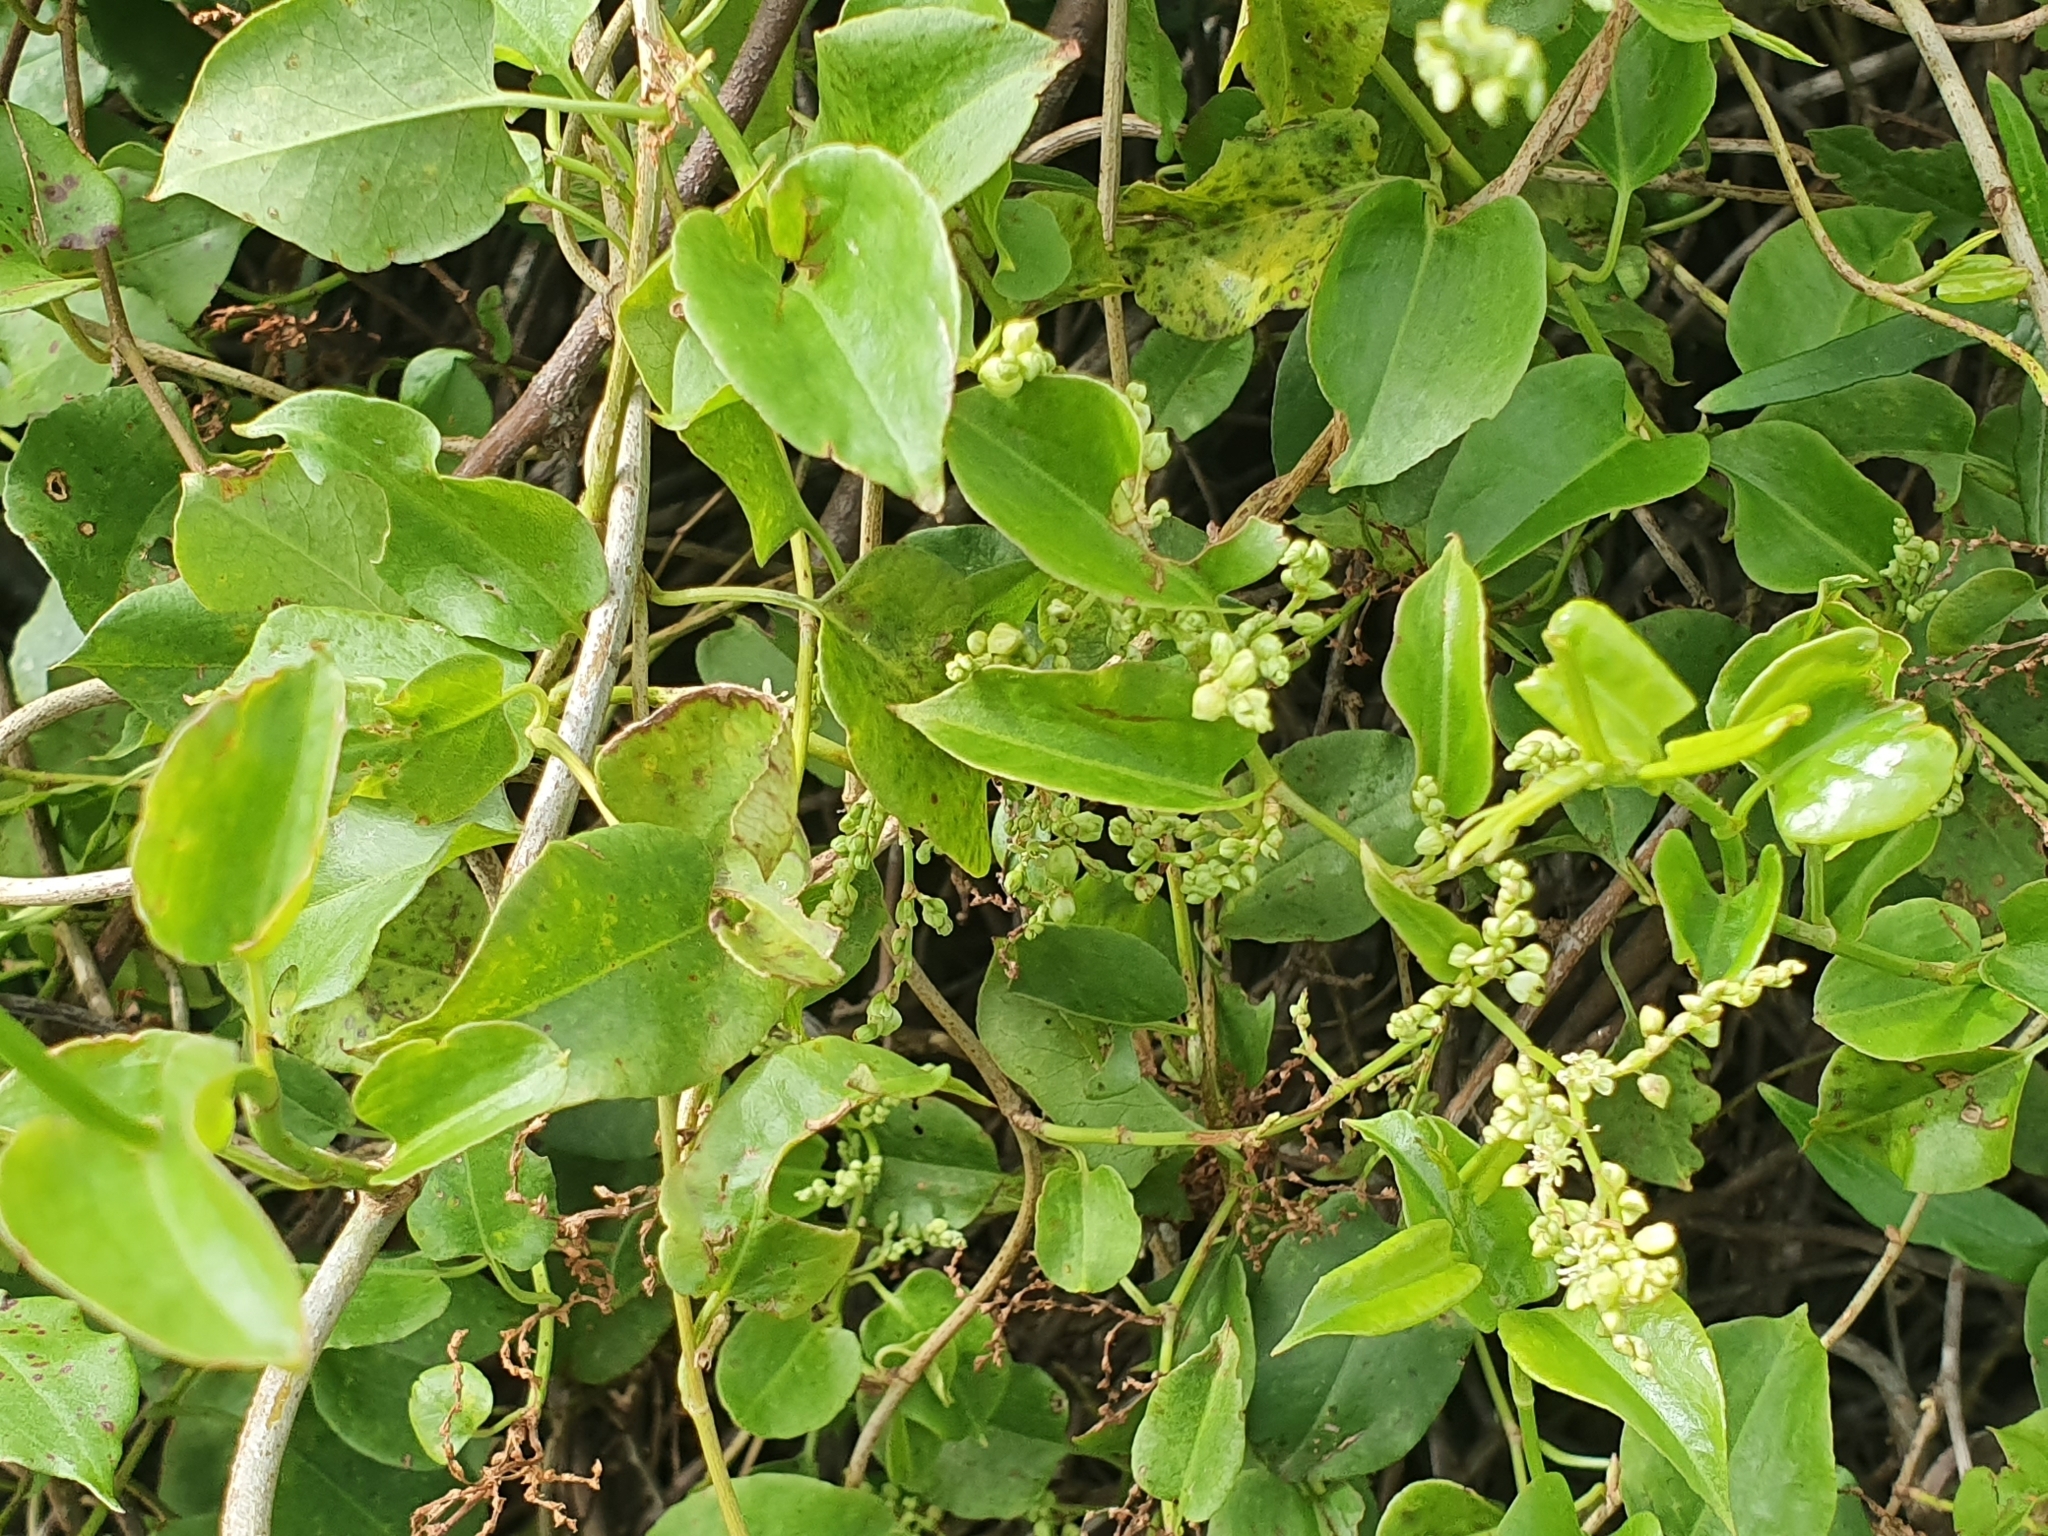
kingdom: Plantae
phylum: Tracheophyta
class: Magnoliopsida
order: Caryophyllales
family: Polygonaceae
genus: Muehlenbeckia
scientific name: Muehlenbeckia australis
